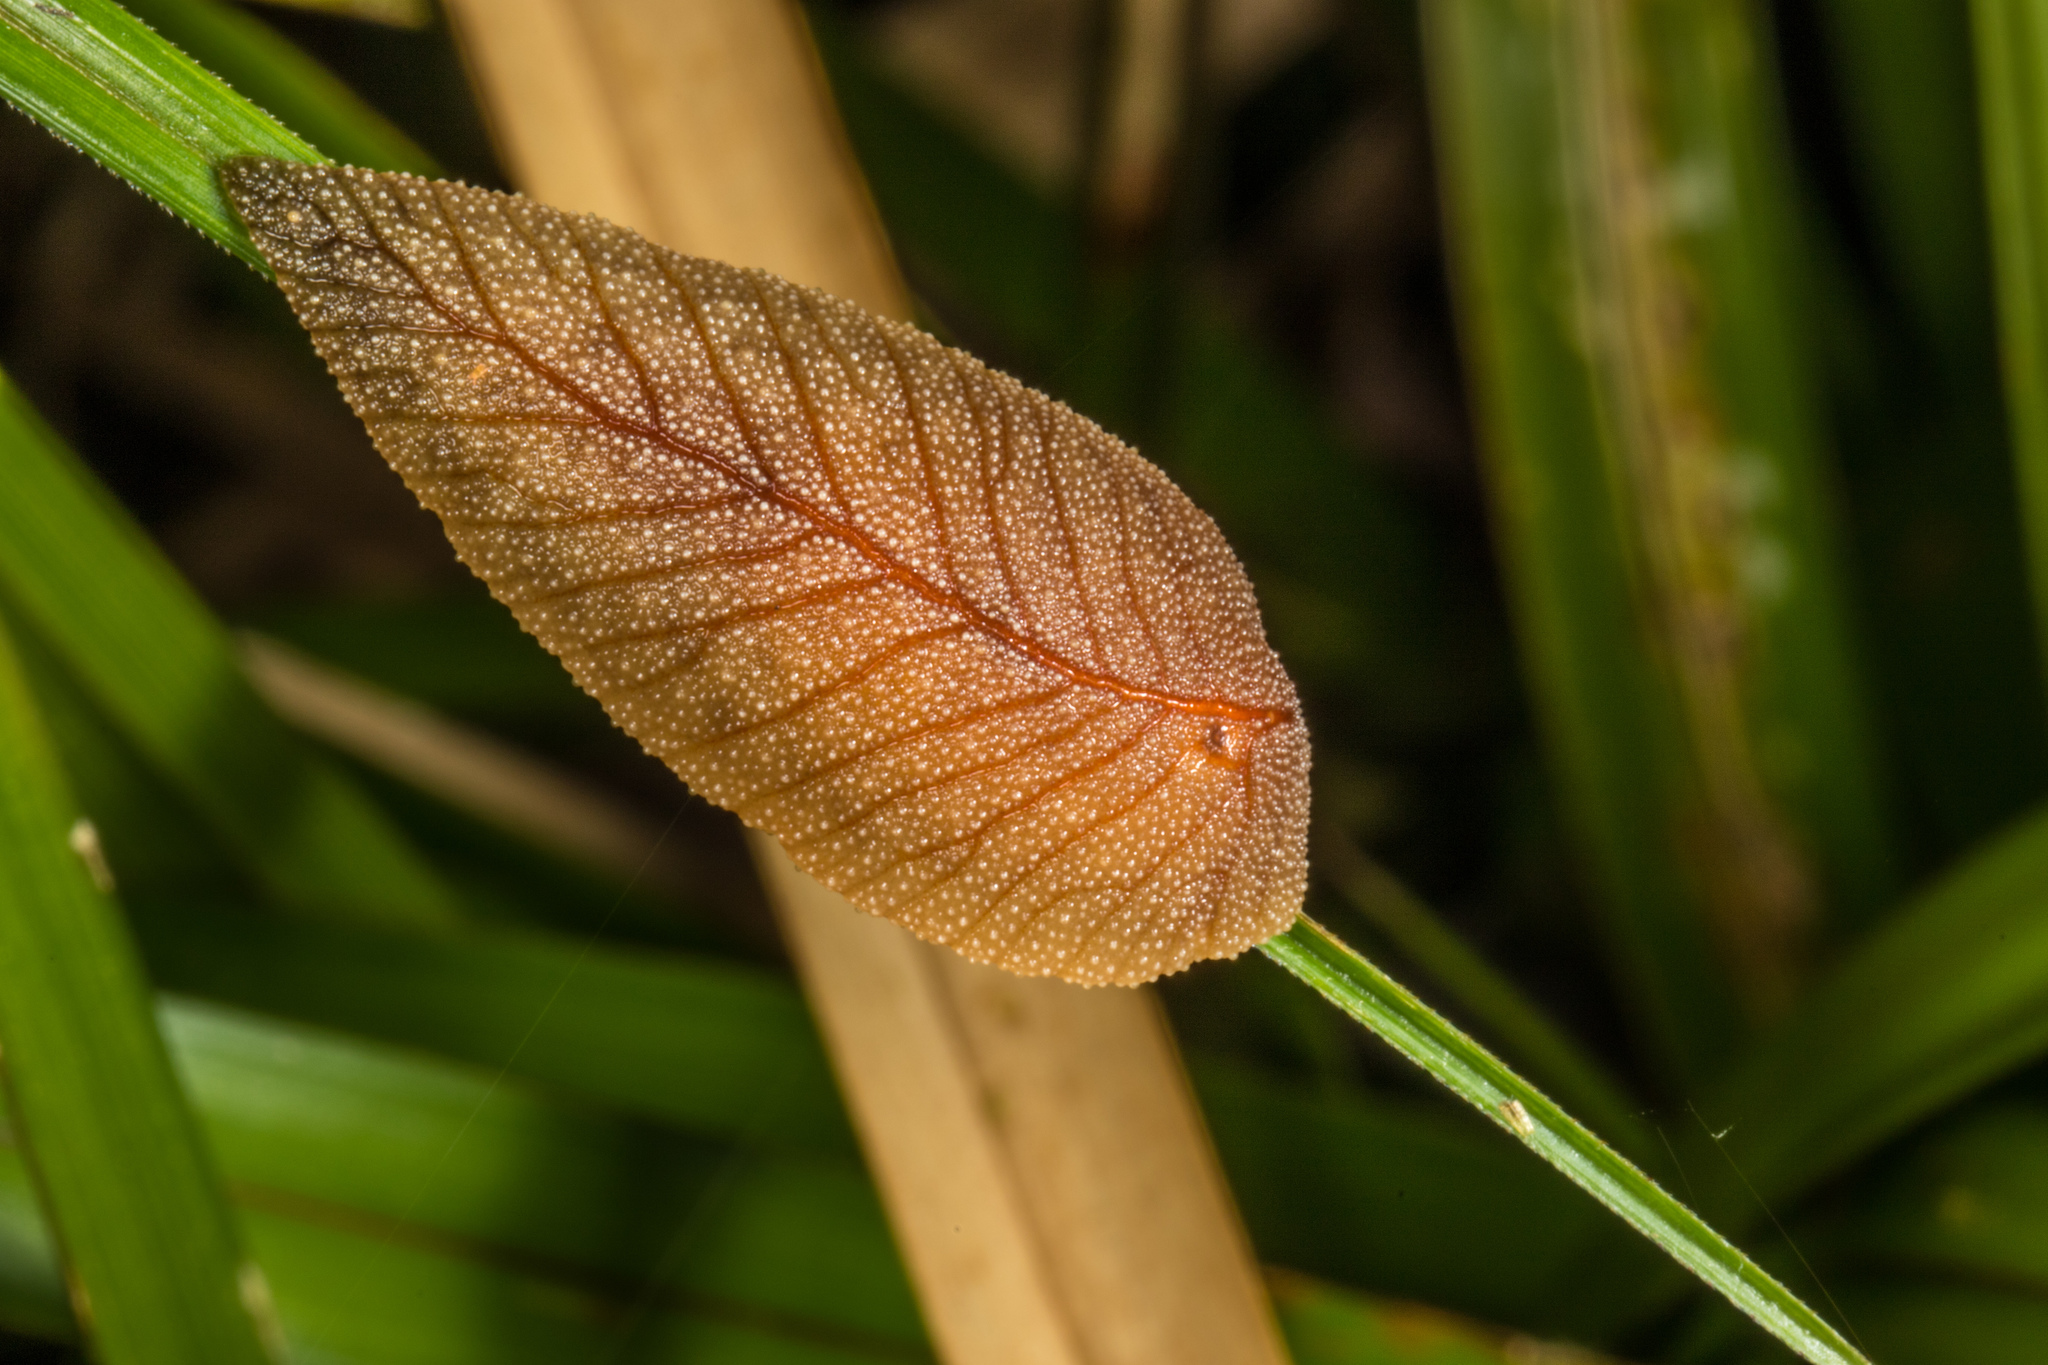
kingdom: Animalia
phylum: Mollusca
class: Gastropoda
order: Stylommatophora
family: Athoracophoridae
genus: Athoracophorus
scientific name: Athoracophorus bitentaculatus
